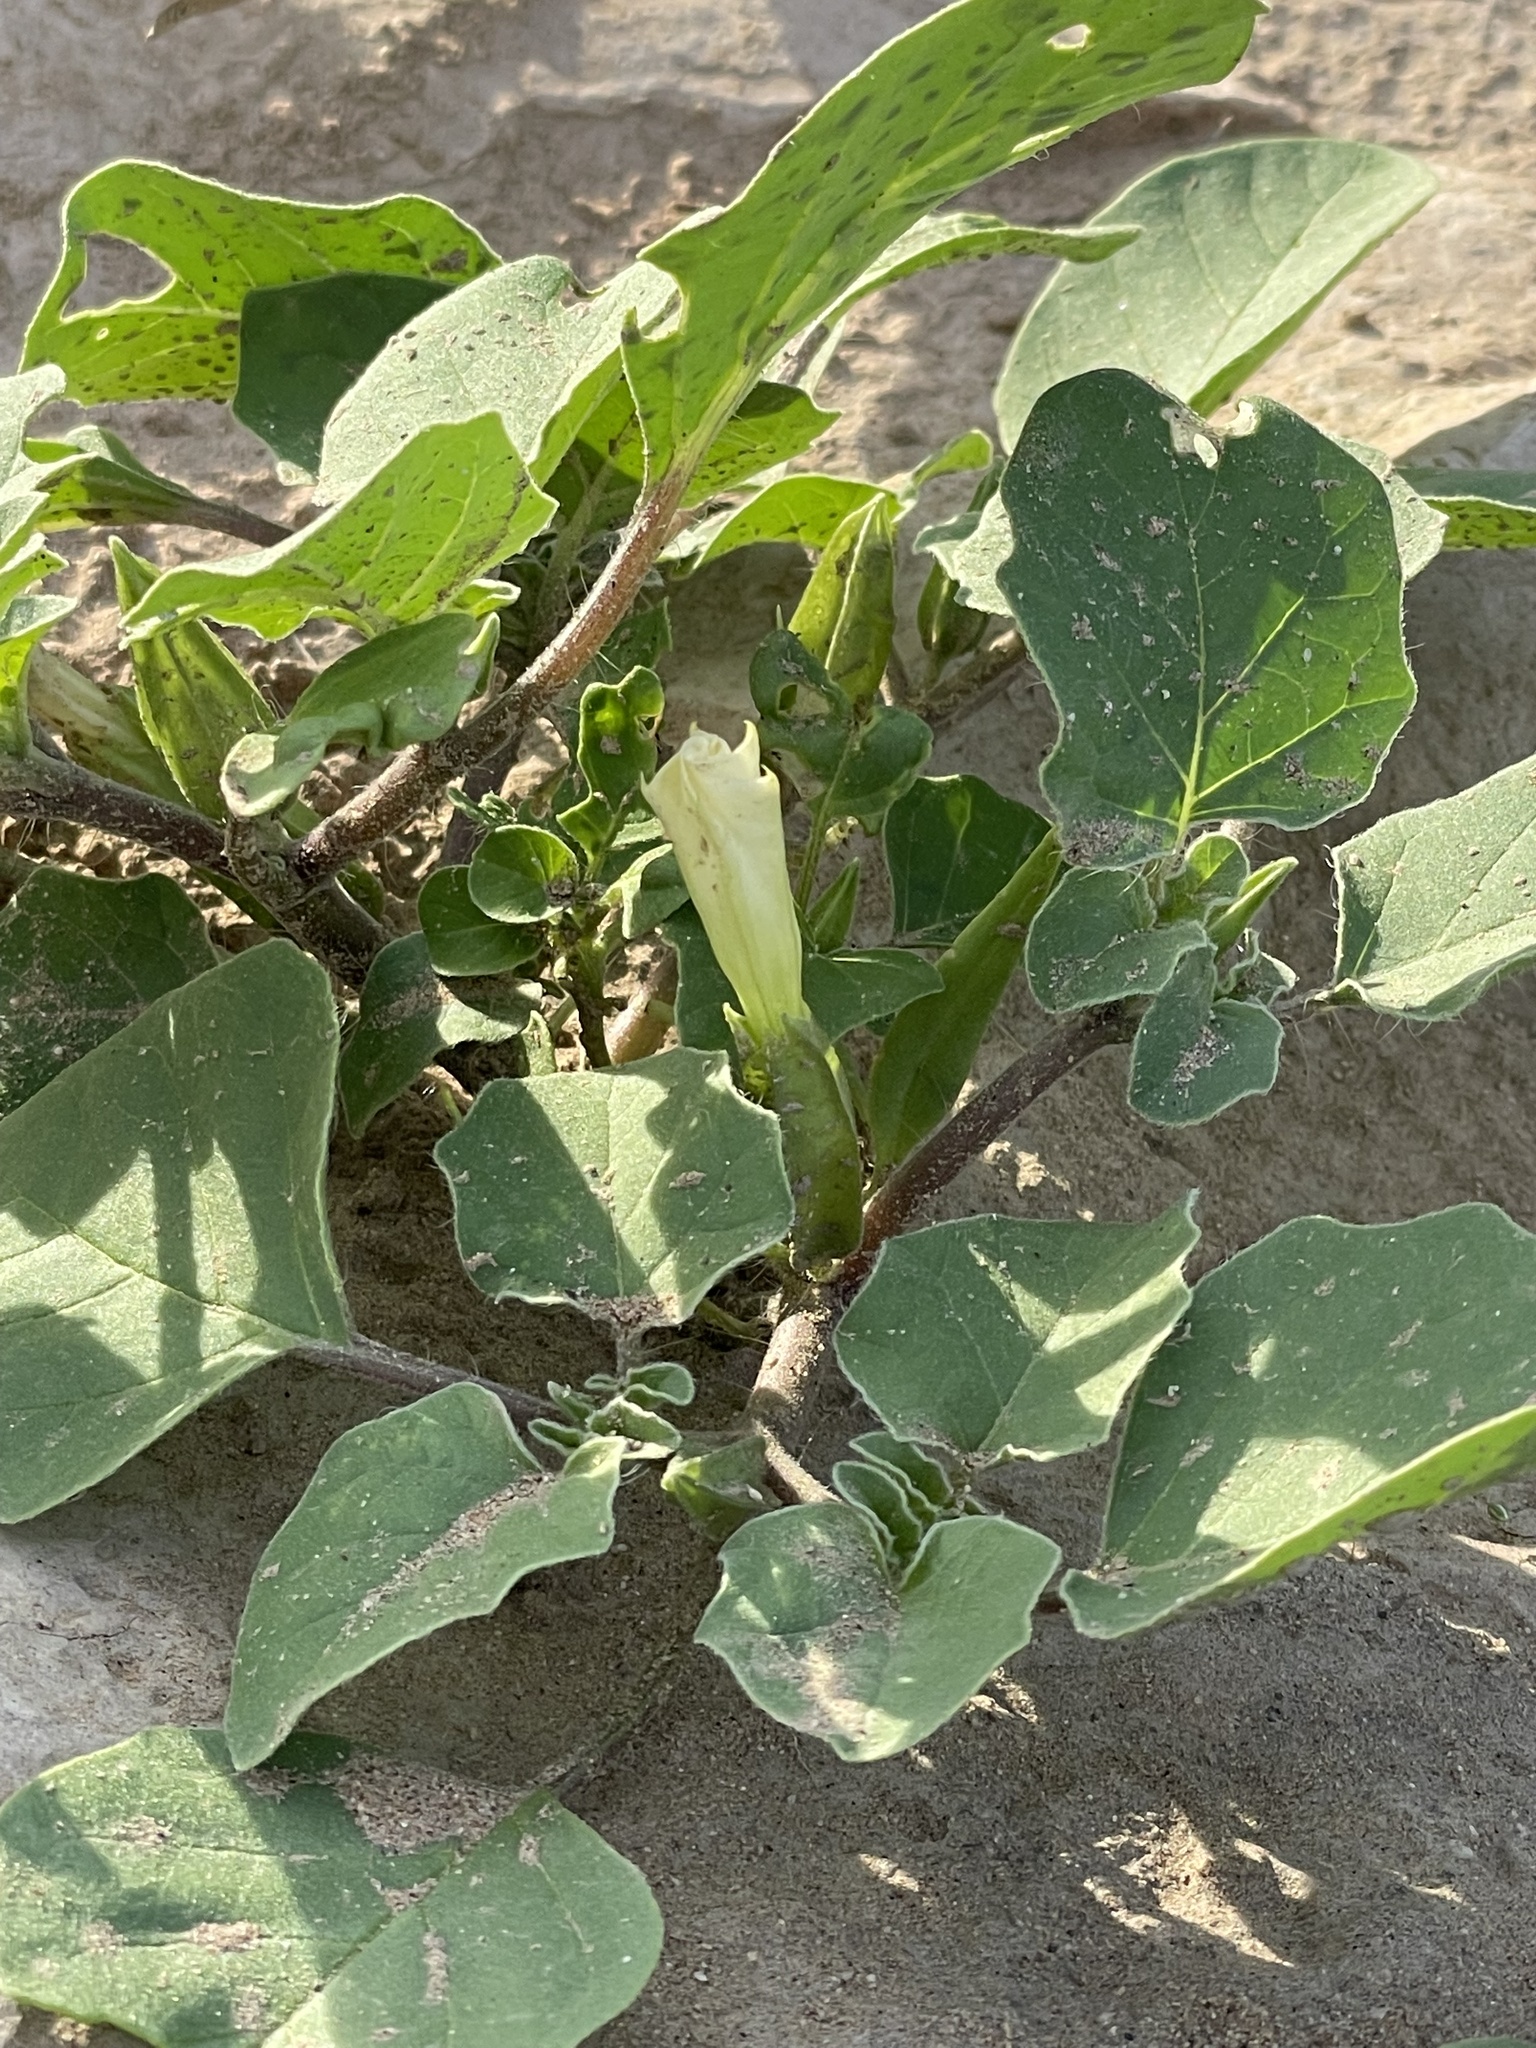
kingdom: Plantae
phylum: Tracheophyta
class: Magnoliopsida
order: Solanales
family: Solanaceae
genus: Datura
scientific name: Datura arenicola
